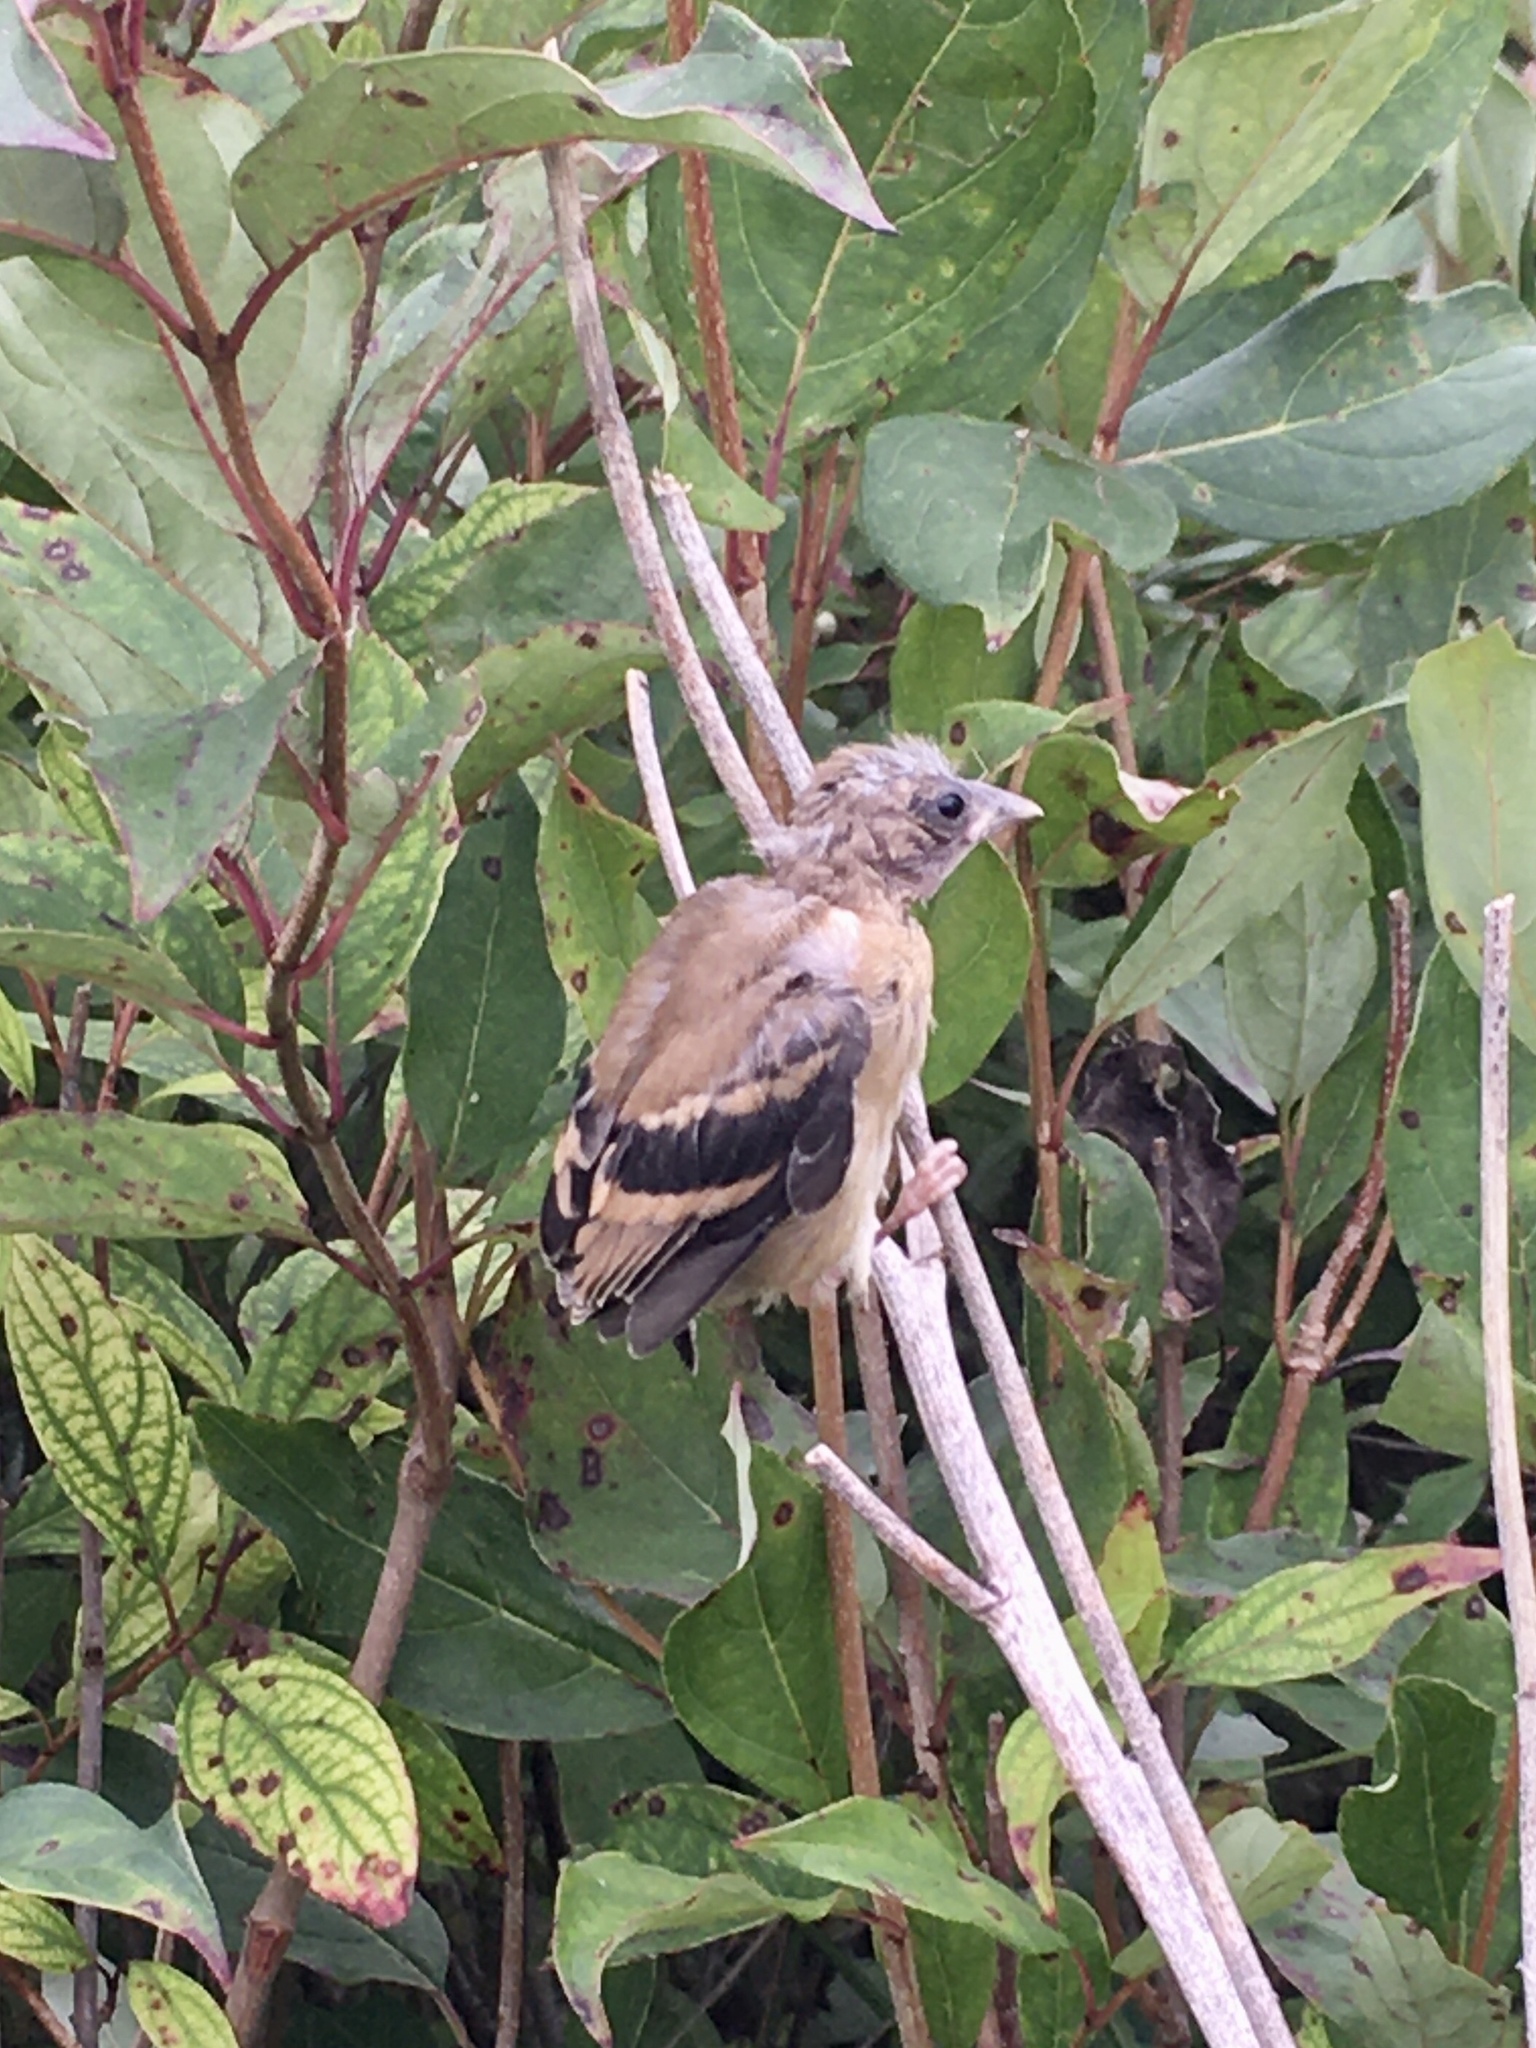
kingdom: Animalia
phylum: Chordata
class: Aves
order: Passeriformes
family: Fringillidae
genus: Spinus
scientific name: Spinus tristis
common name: American goldfinch
